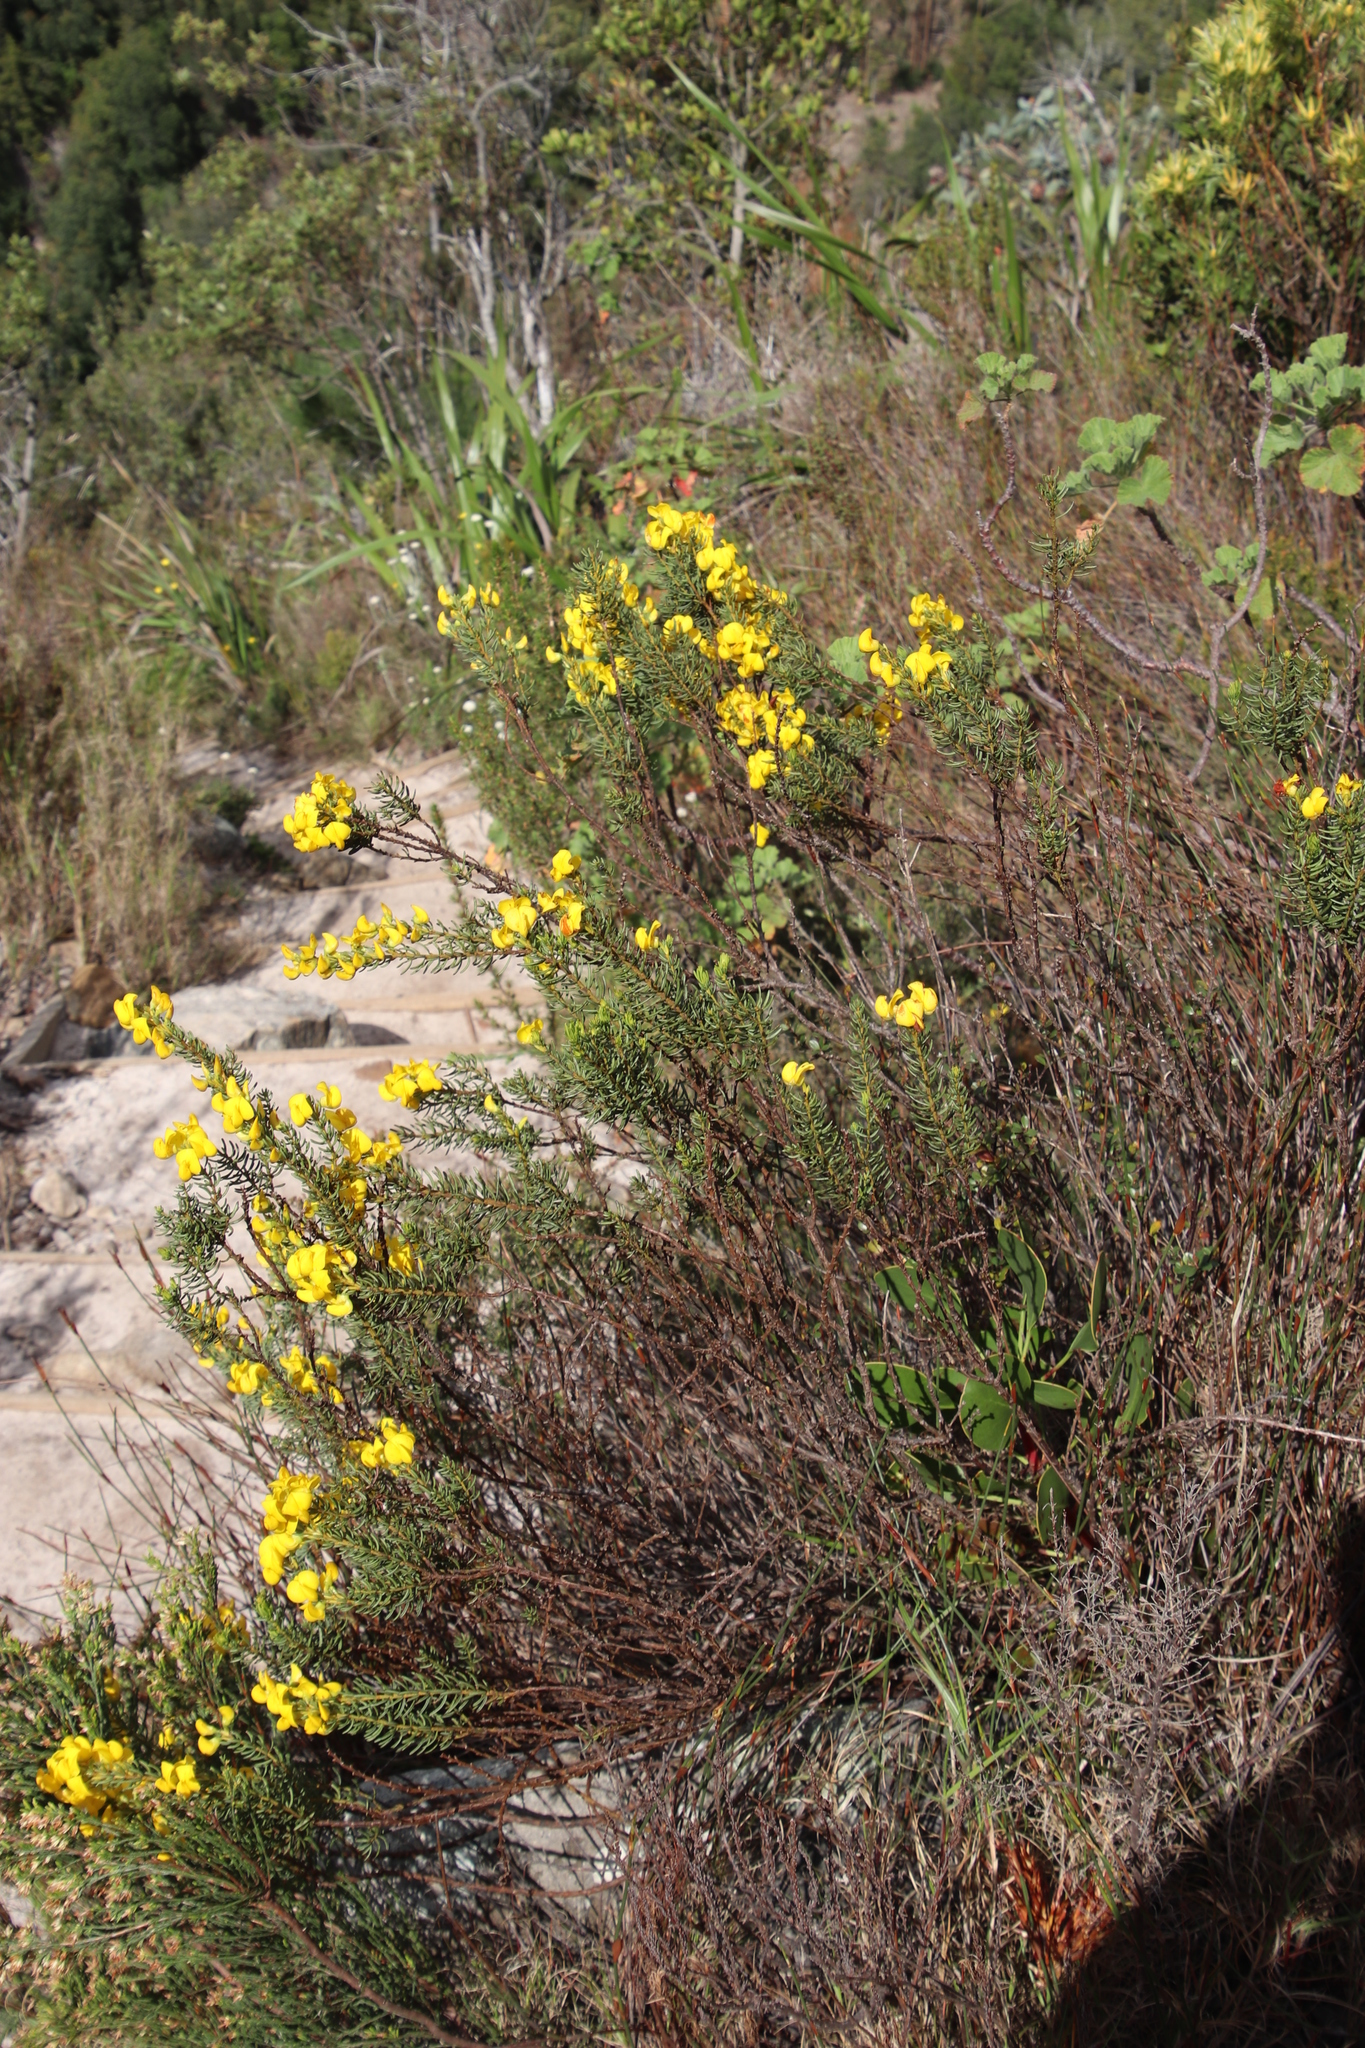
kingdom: Plantae
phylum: Tracheophyta
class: Magnoliopsida
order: Fabales
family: Fabaceae
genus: Cyclopia
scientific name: Cyclopia genistoides
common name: Honeybush tea
